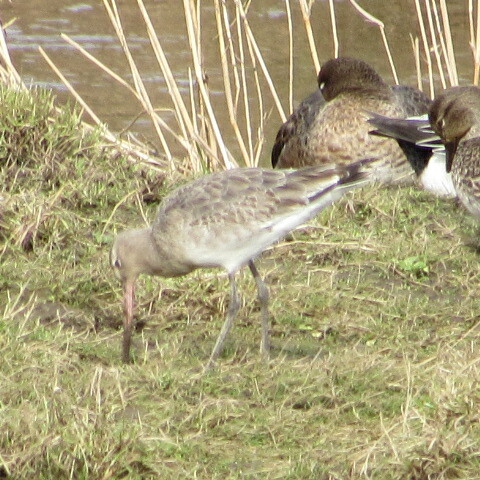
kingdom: Animalia
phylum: Chordata
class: Aves
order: Charadriiformes
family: Scolopacidae
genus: Limosa
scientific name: Limosa limosa
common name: Black-tailed godwit
